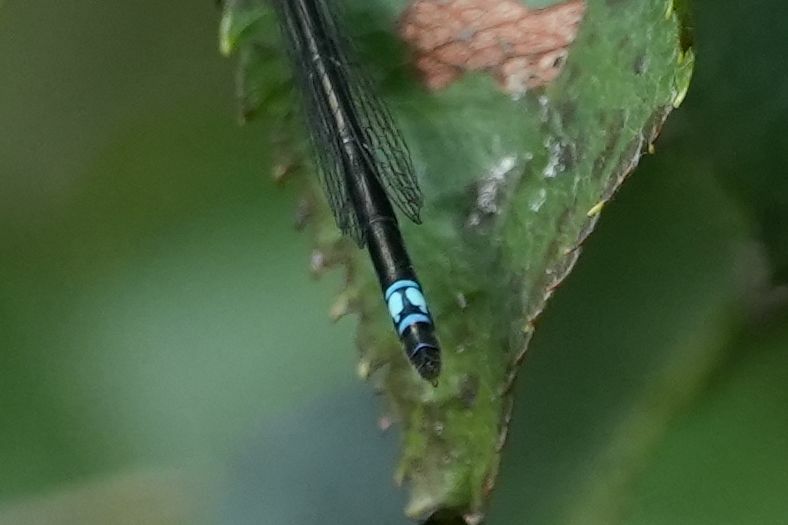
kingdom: Animalia
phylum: Arthropoda
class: Insecta
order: Odonata
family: Coenagrionidae
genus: Enallagma
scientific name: Enallagma geminatum
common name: Skimming bluet
